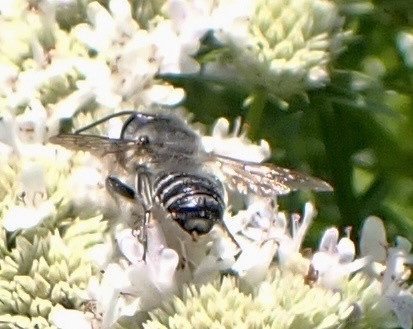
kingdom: Animalia
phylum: Arthropoda
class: Insecta
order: Hymenoptera
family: Megachilidae
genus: Megachile
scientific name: Megachile mendica
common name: Flat-tailed leafcutter
